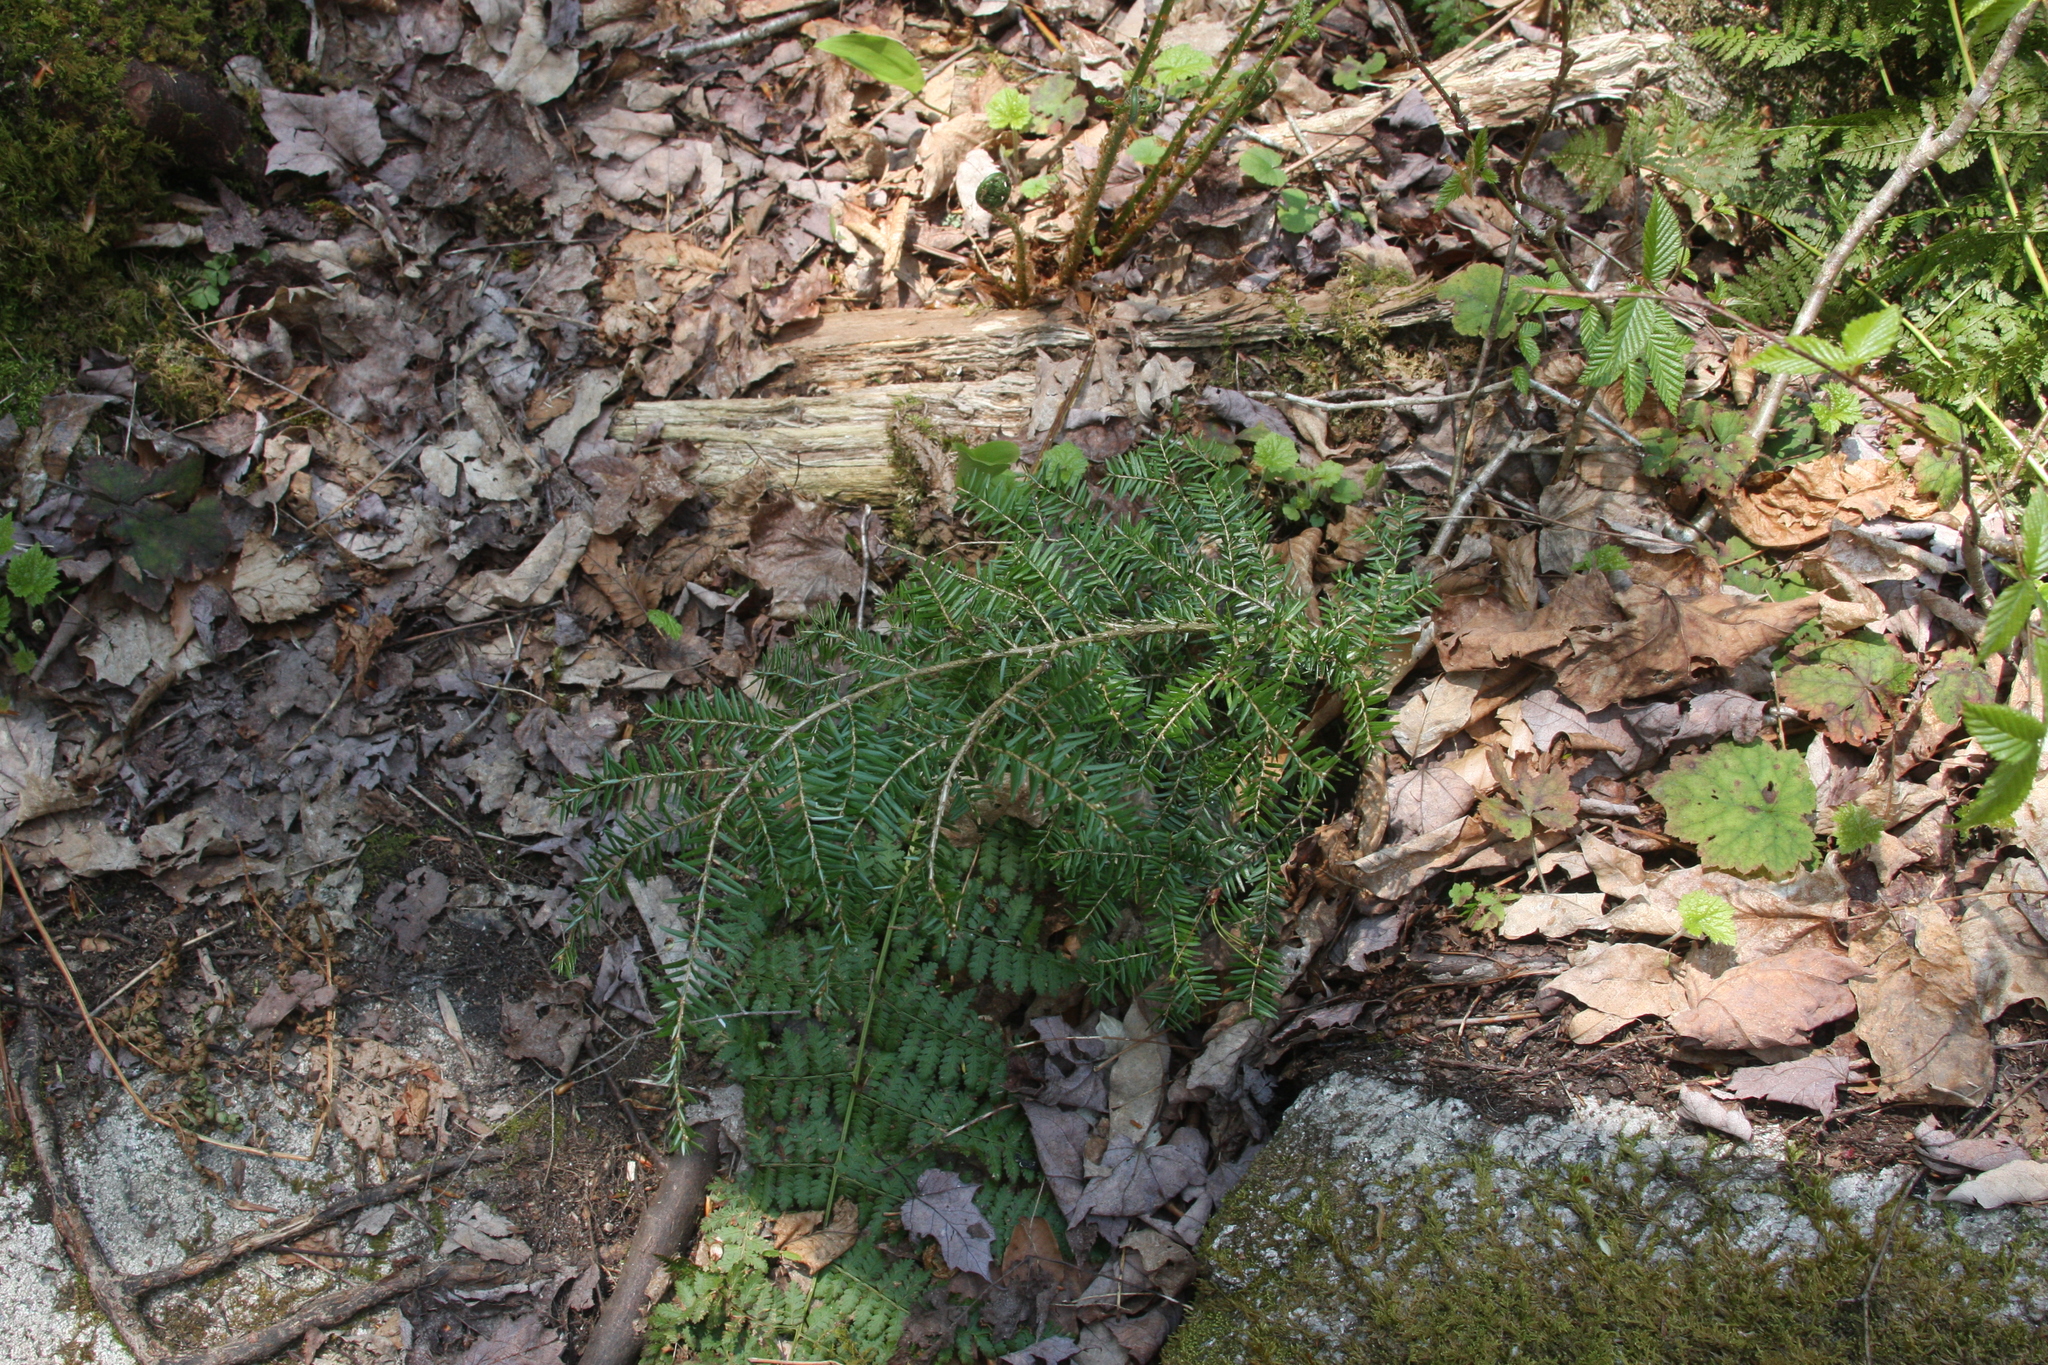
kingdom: Plantae
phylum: Tracheophyta
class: Pinopsida
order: Pinales
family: Pinaceae
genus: Tsuga
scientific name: Tsuga canadensis
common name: Eastern hemlock
